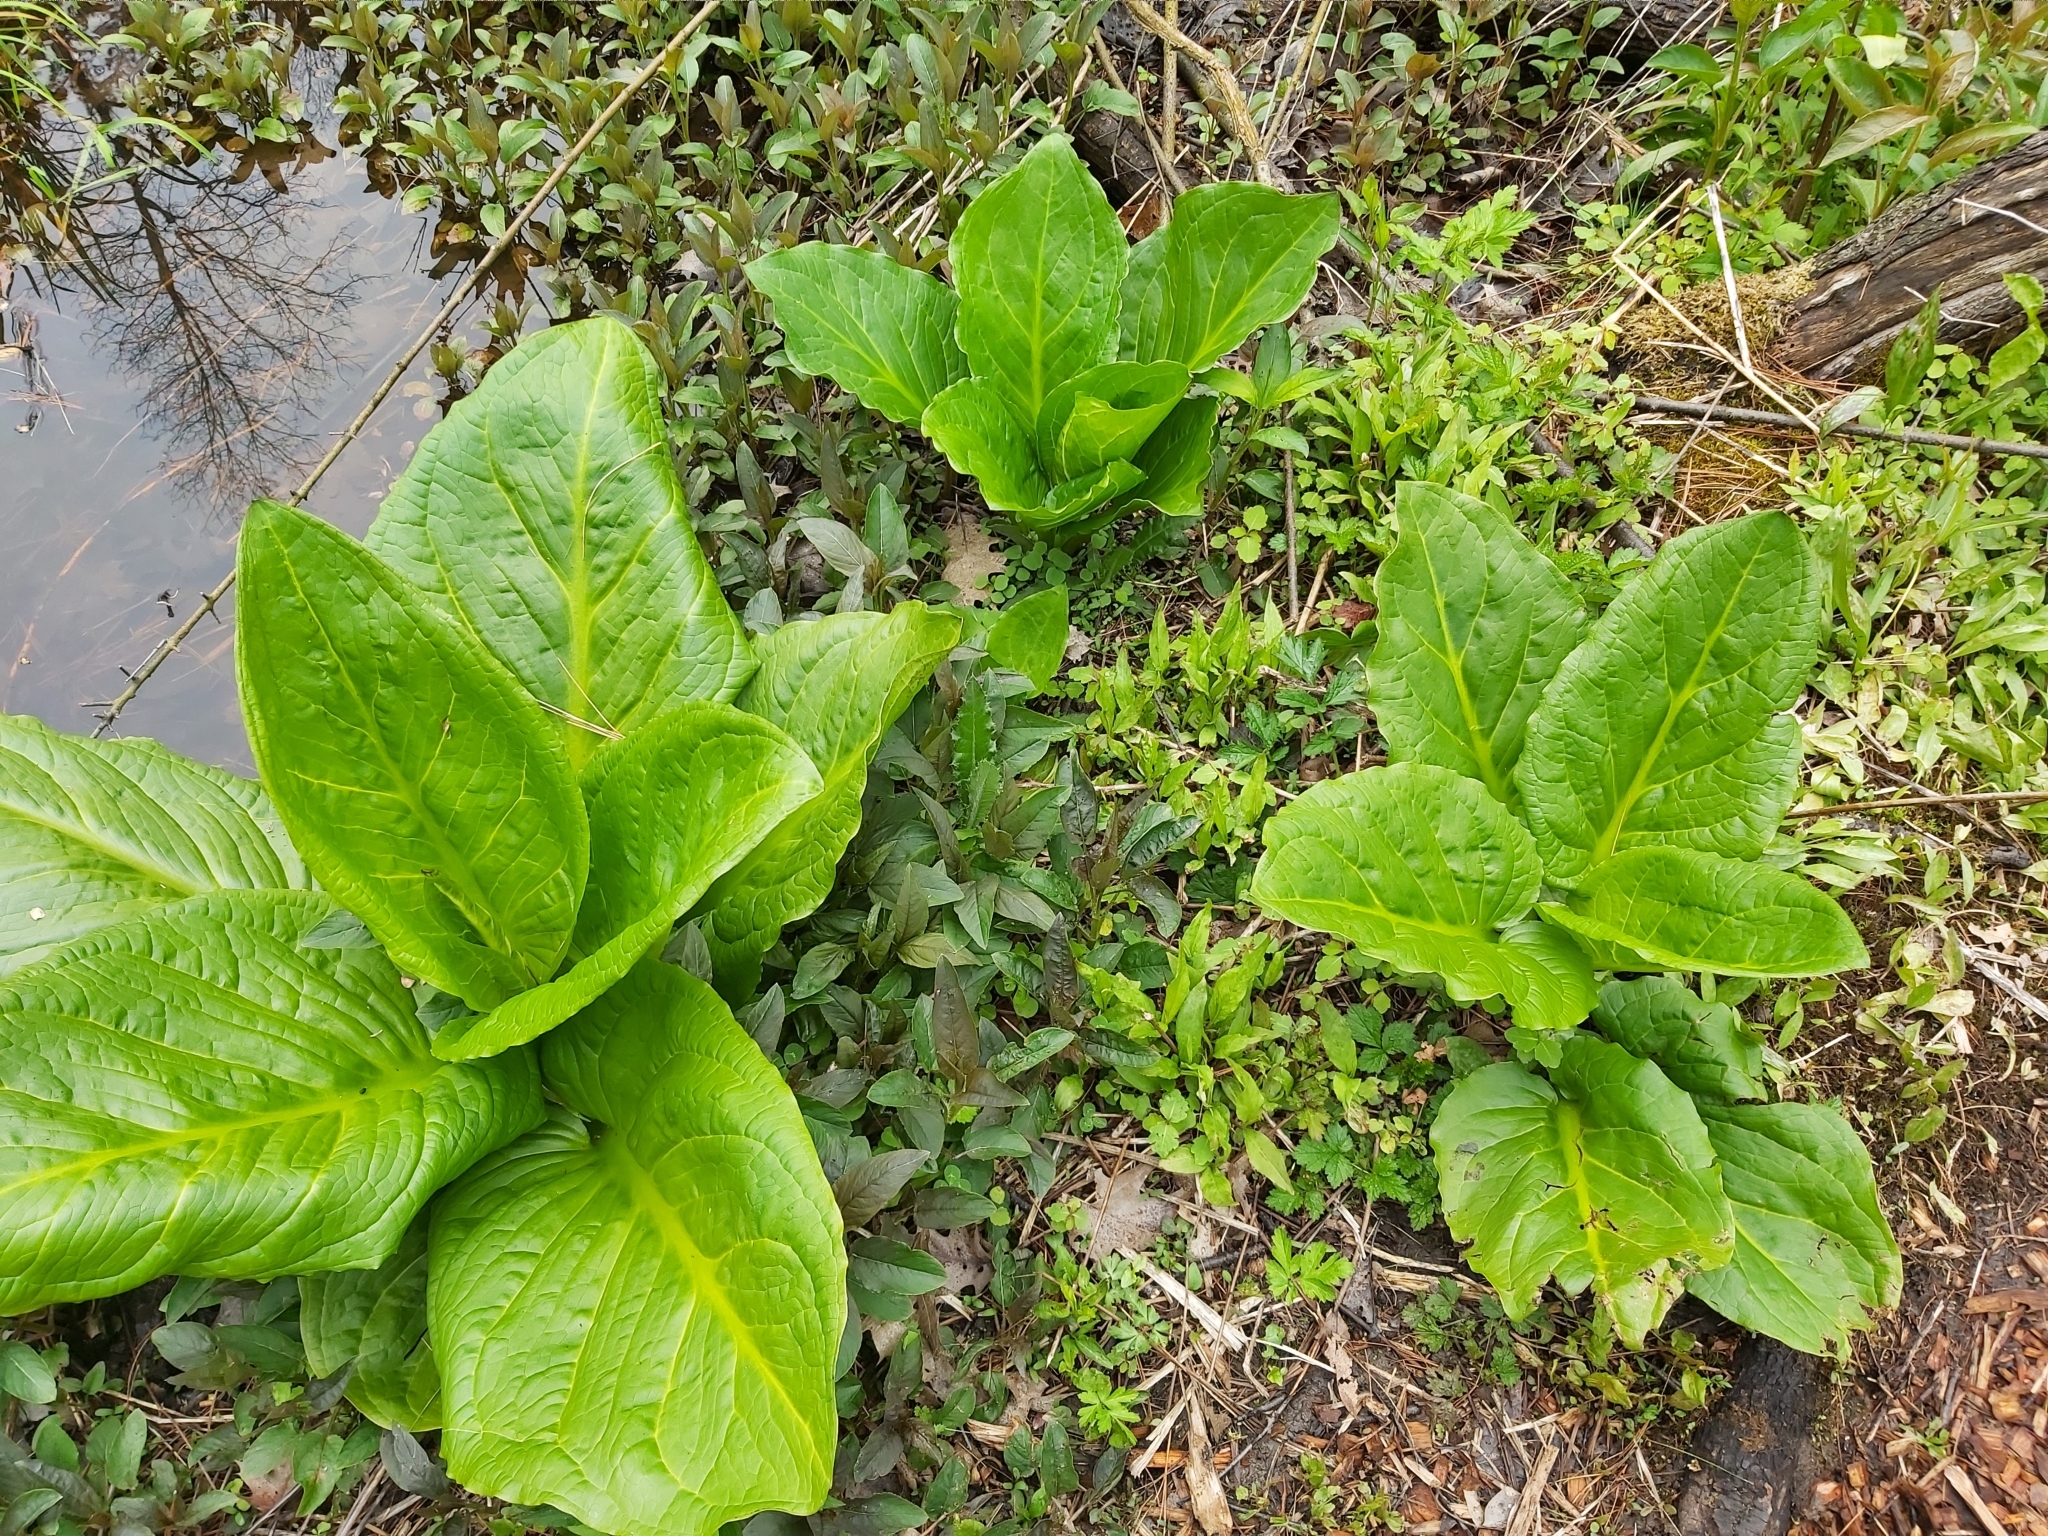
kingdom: Plantae
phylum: Tracheophyta
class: Liliopsida
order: Alismatales
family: Araceae
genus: Symplocarpus
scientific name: Symplocarpus foetidus
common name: Eastern skunk cabbage
